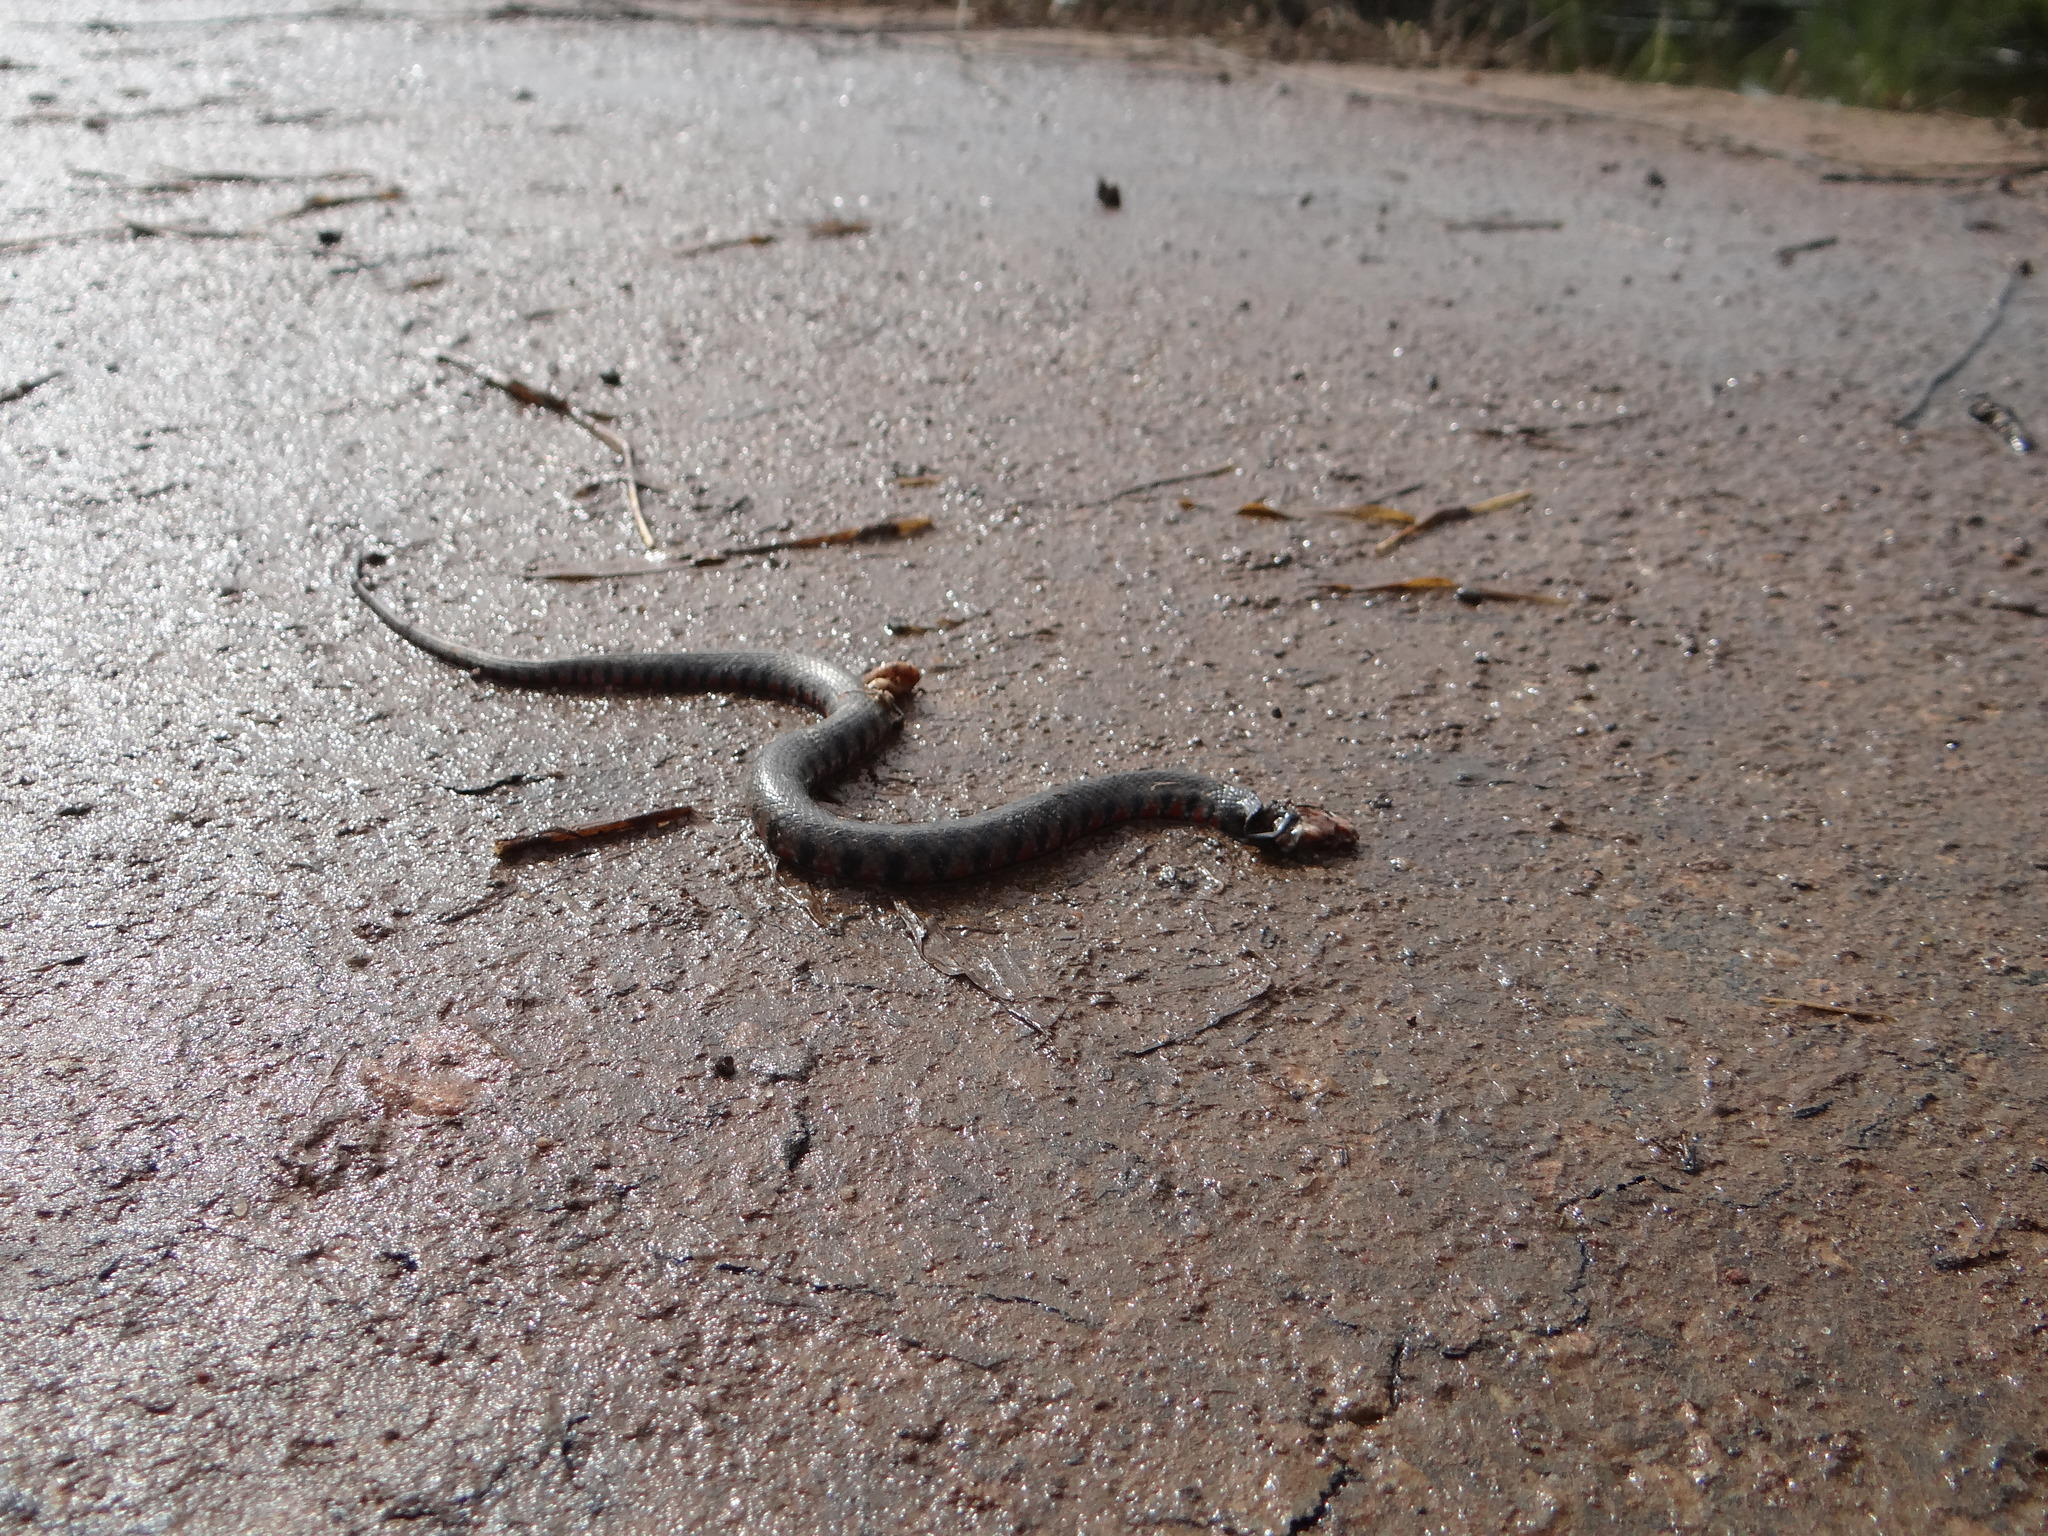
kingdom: Animalia
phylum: Chordata
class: Squamata
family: Colubridae
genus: Helicops
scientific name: Helicops leopardinus
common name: Leopard keelback
